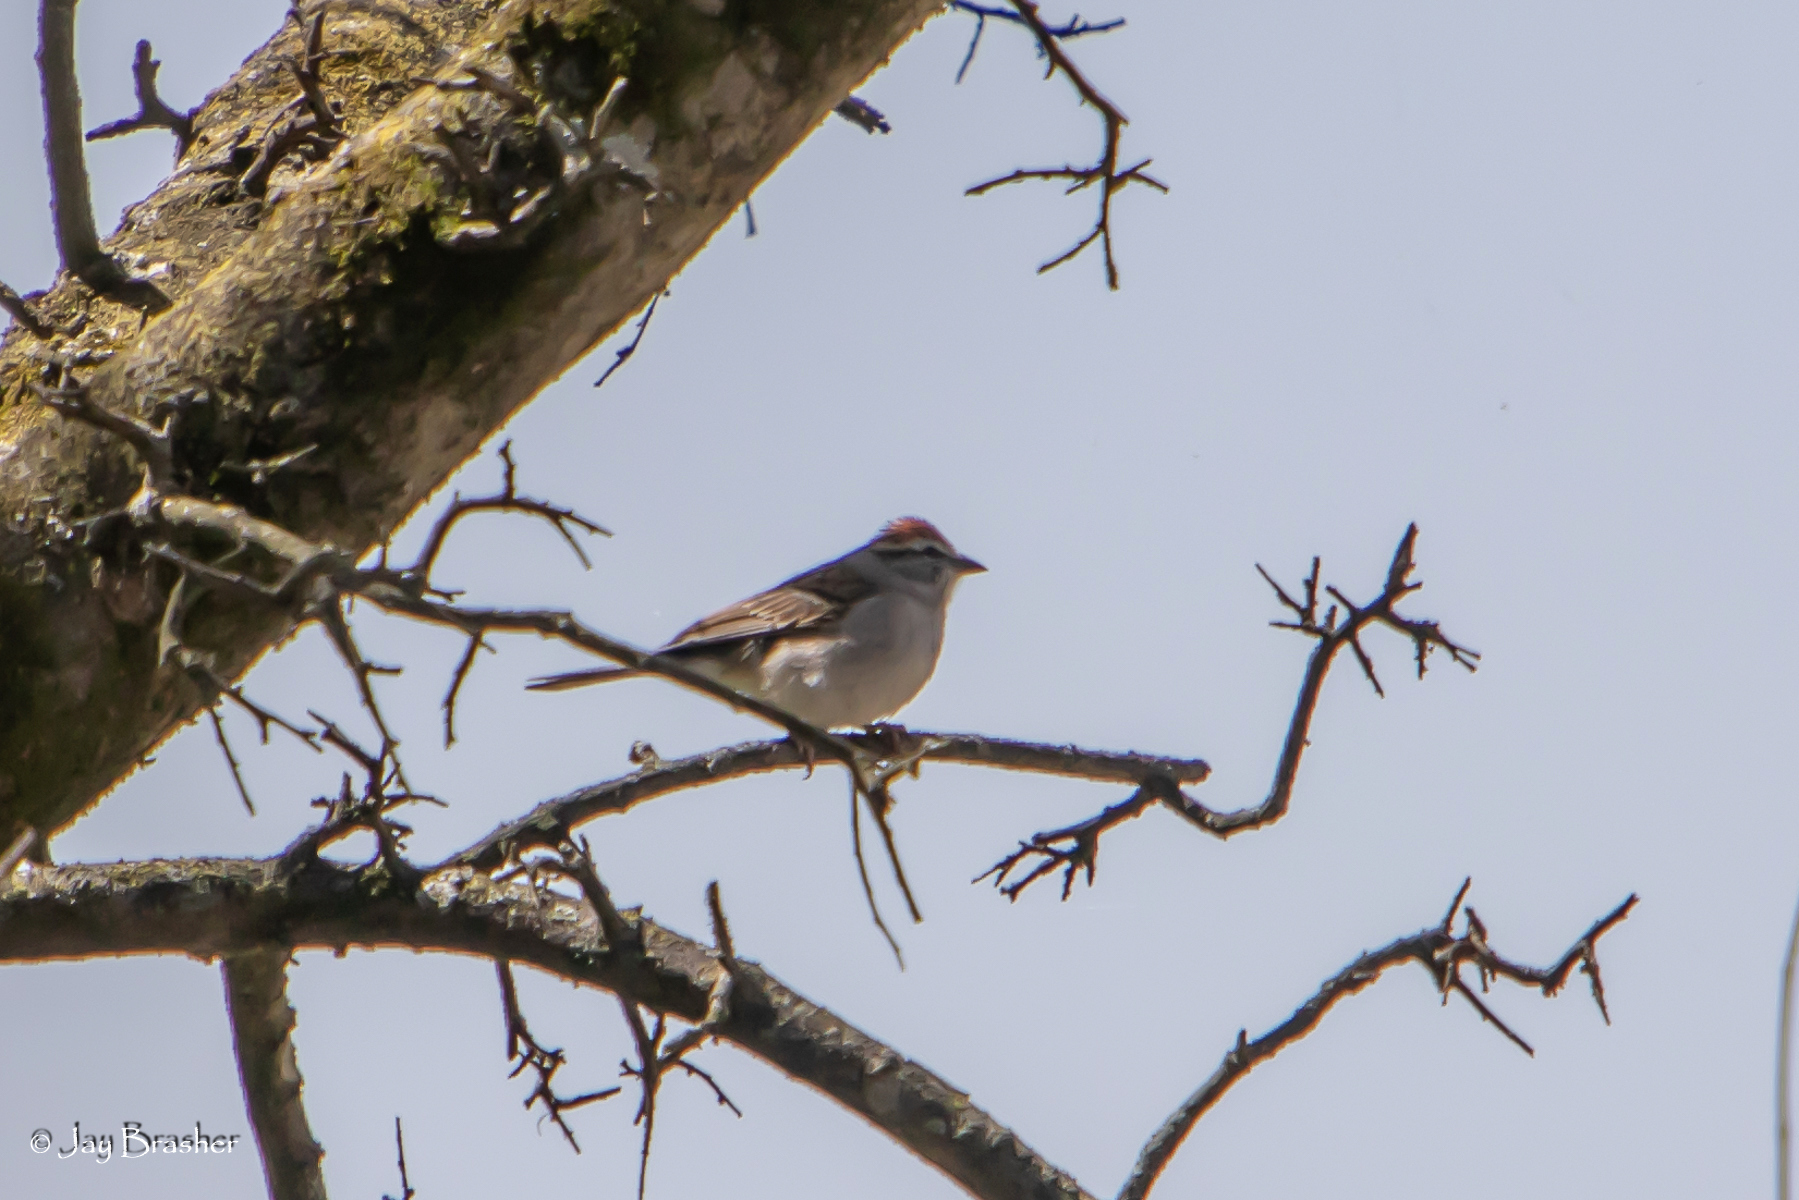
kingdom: Animalia
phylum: Chordata
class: Aves
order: Passeriformes
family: Passerellidae
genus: Spizella
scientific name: Spizella passerina
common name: Chipping sparrow
